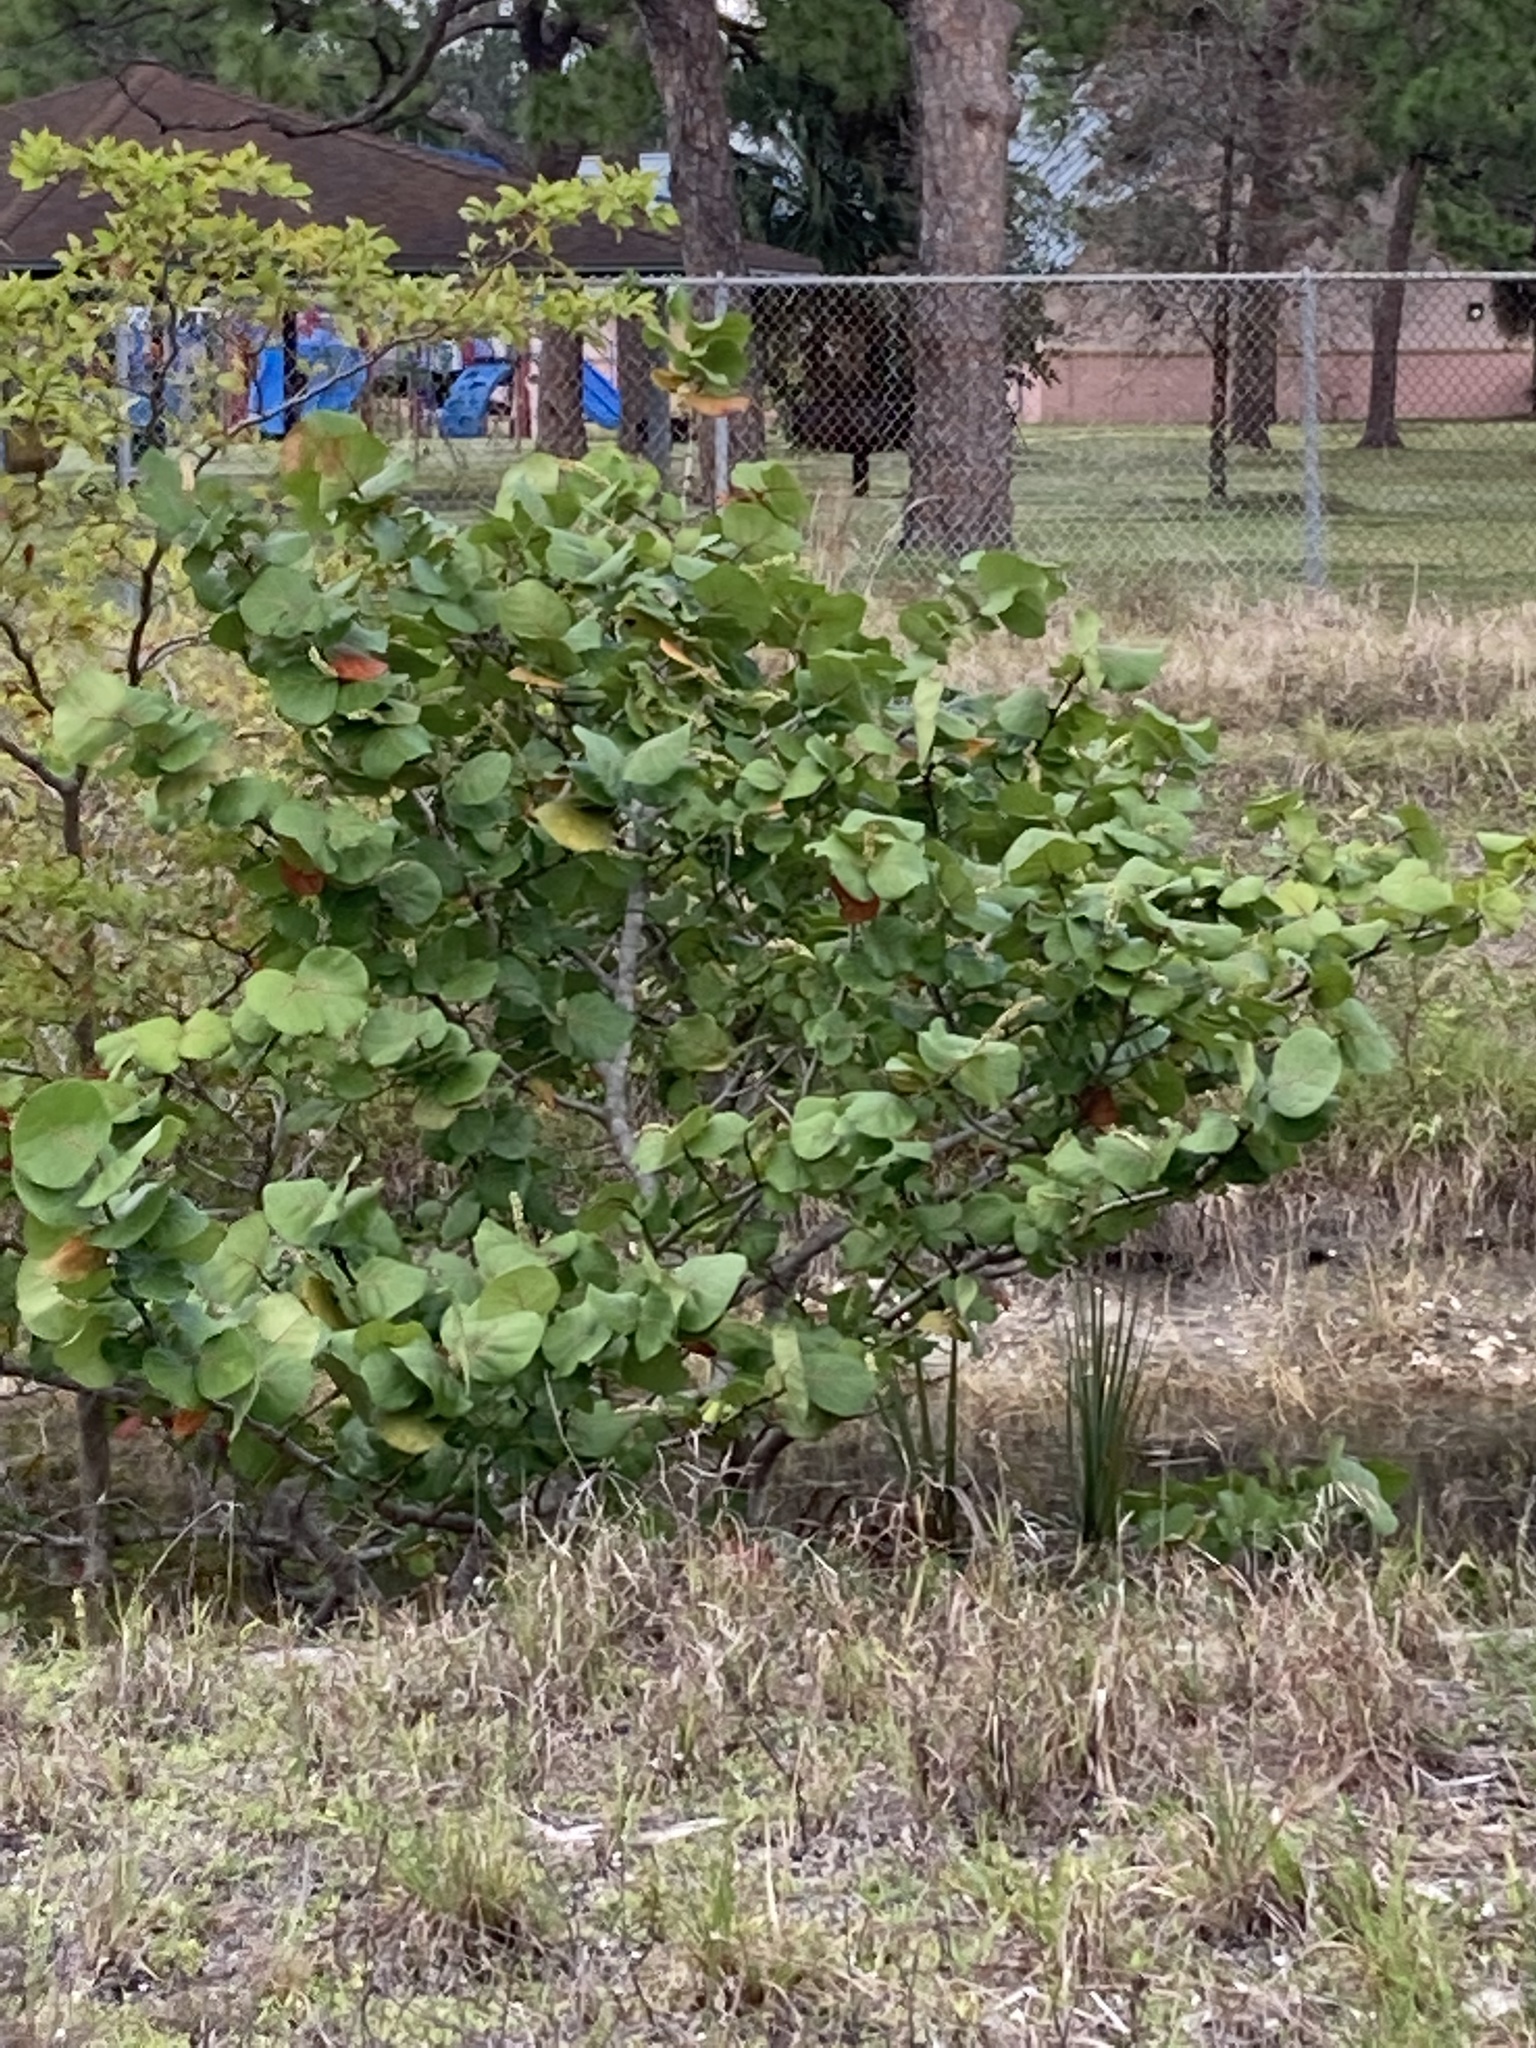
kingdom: Plantae
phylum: Tracheophyta
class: Magnoliopsida
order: Caryophyllales
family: Polygonaceae
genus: Coccoloba
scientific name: Coccoloba uvifera
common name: Seagrape
